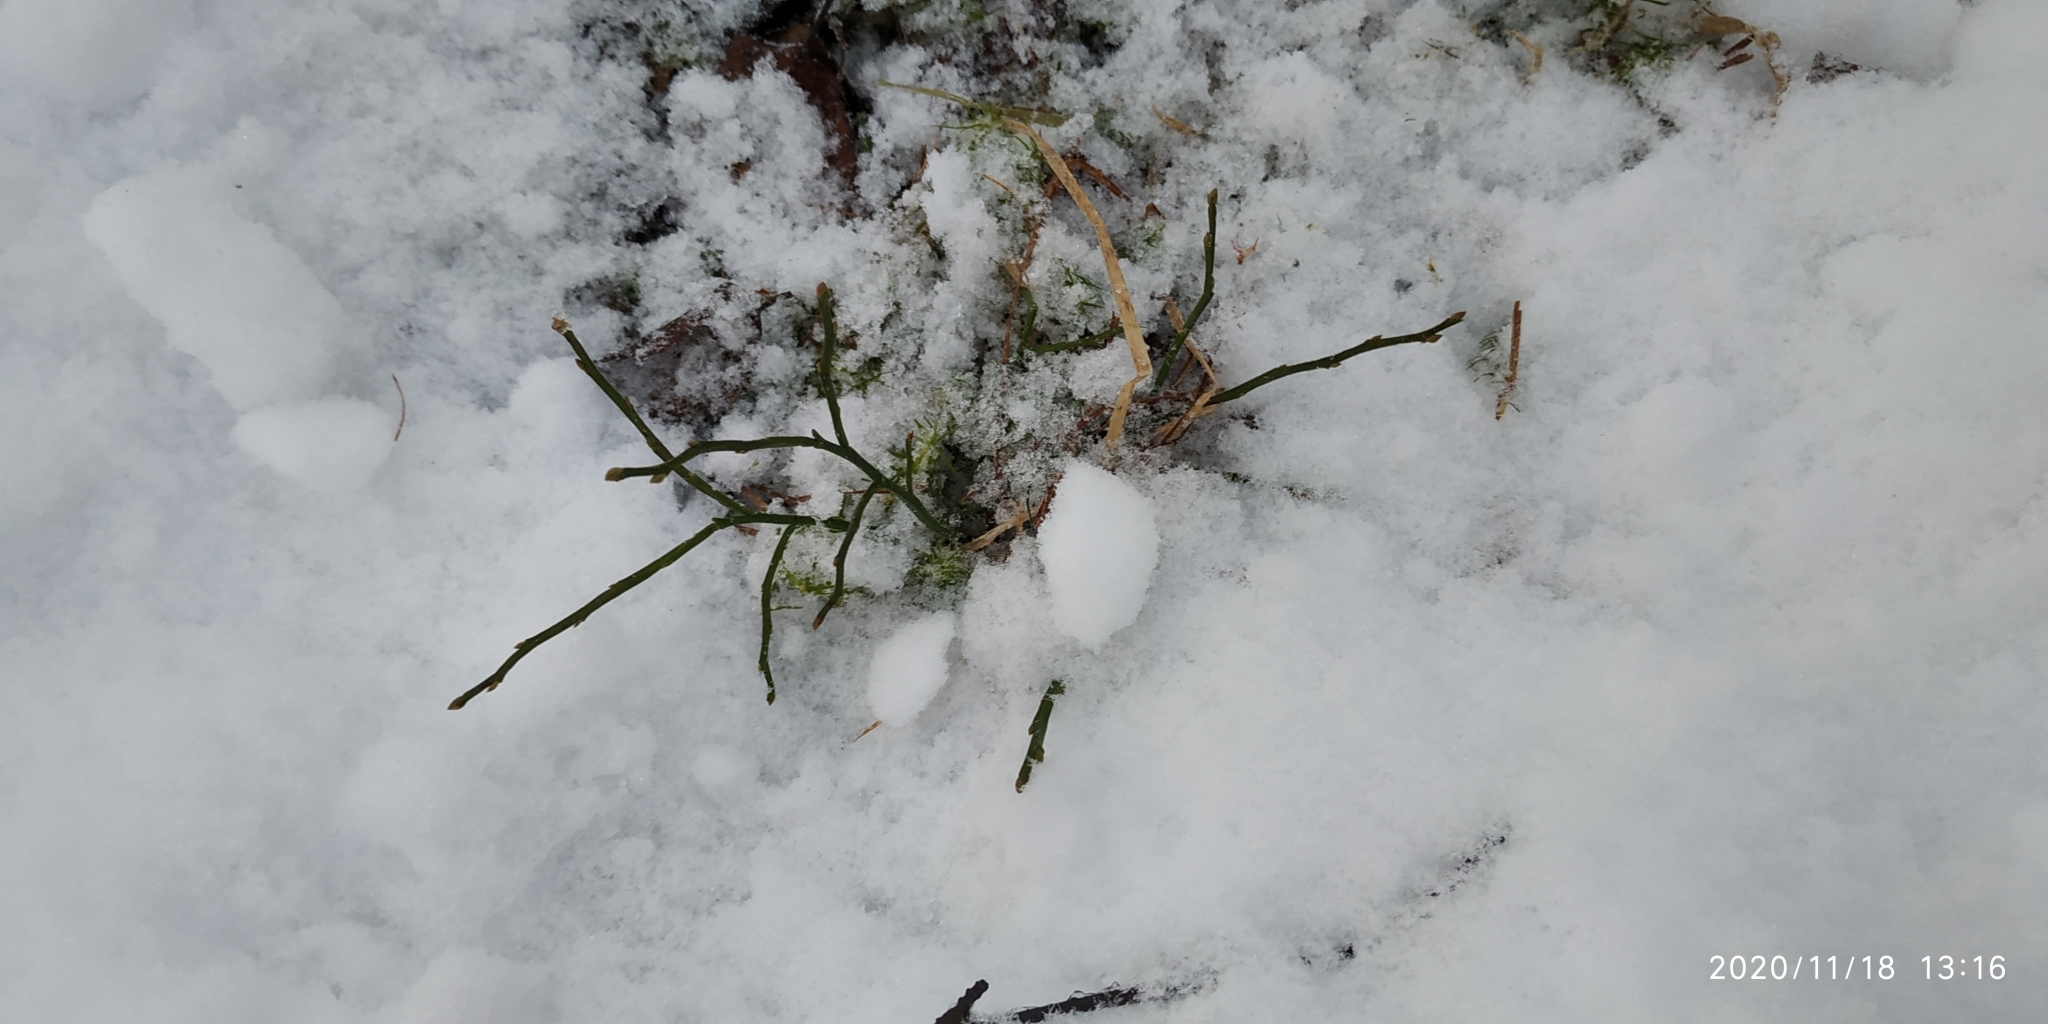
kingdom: Plantae
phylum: Tracheophyta
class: Magnoliopsida
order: Ericales
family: Ericaceae
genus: Vaccinium
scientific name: Vaccinium myrtillus
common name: Bilberry
